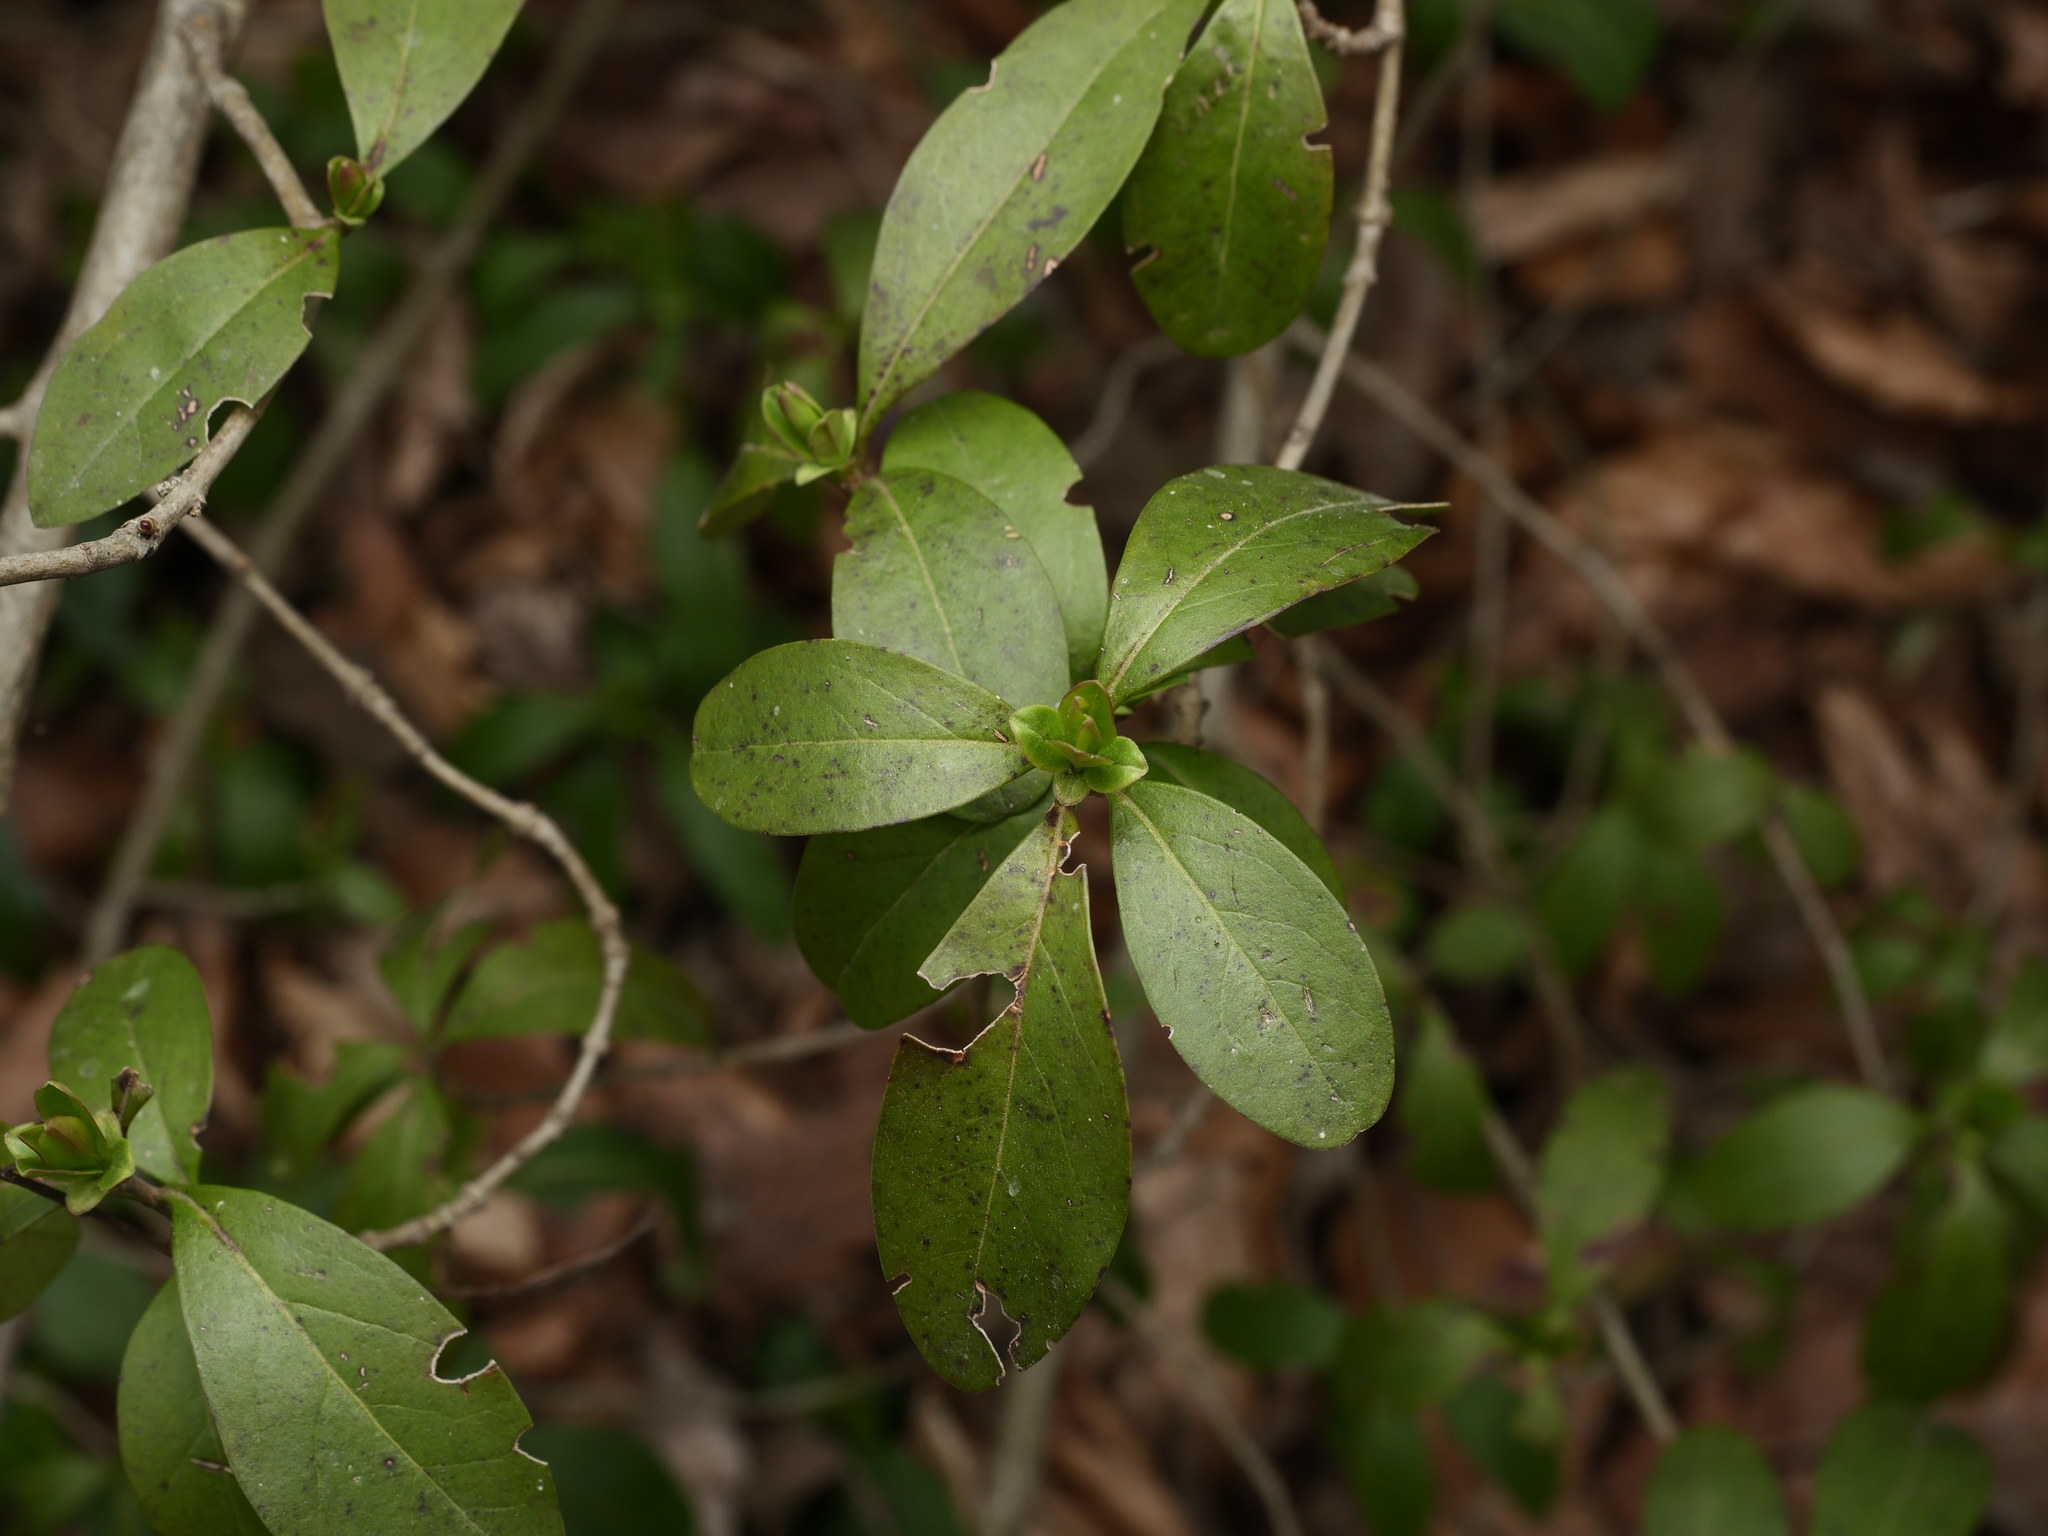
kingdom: Plantae
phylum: Tracheophyta
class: Magnoliopsida
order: Lamiales
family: Oleaceae
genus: Ligustrum
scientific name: Ligustrum vulgare
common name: Wild privet
